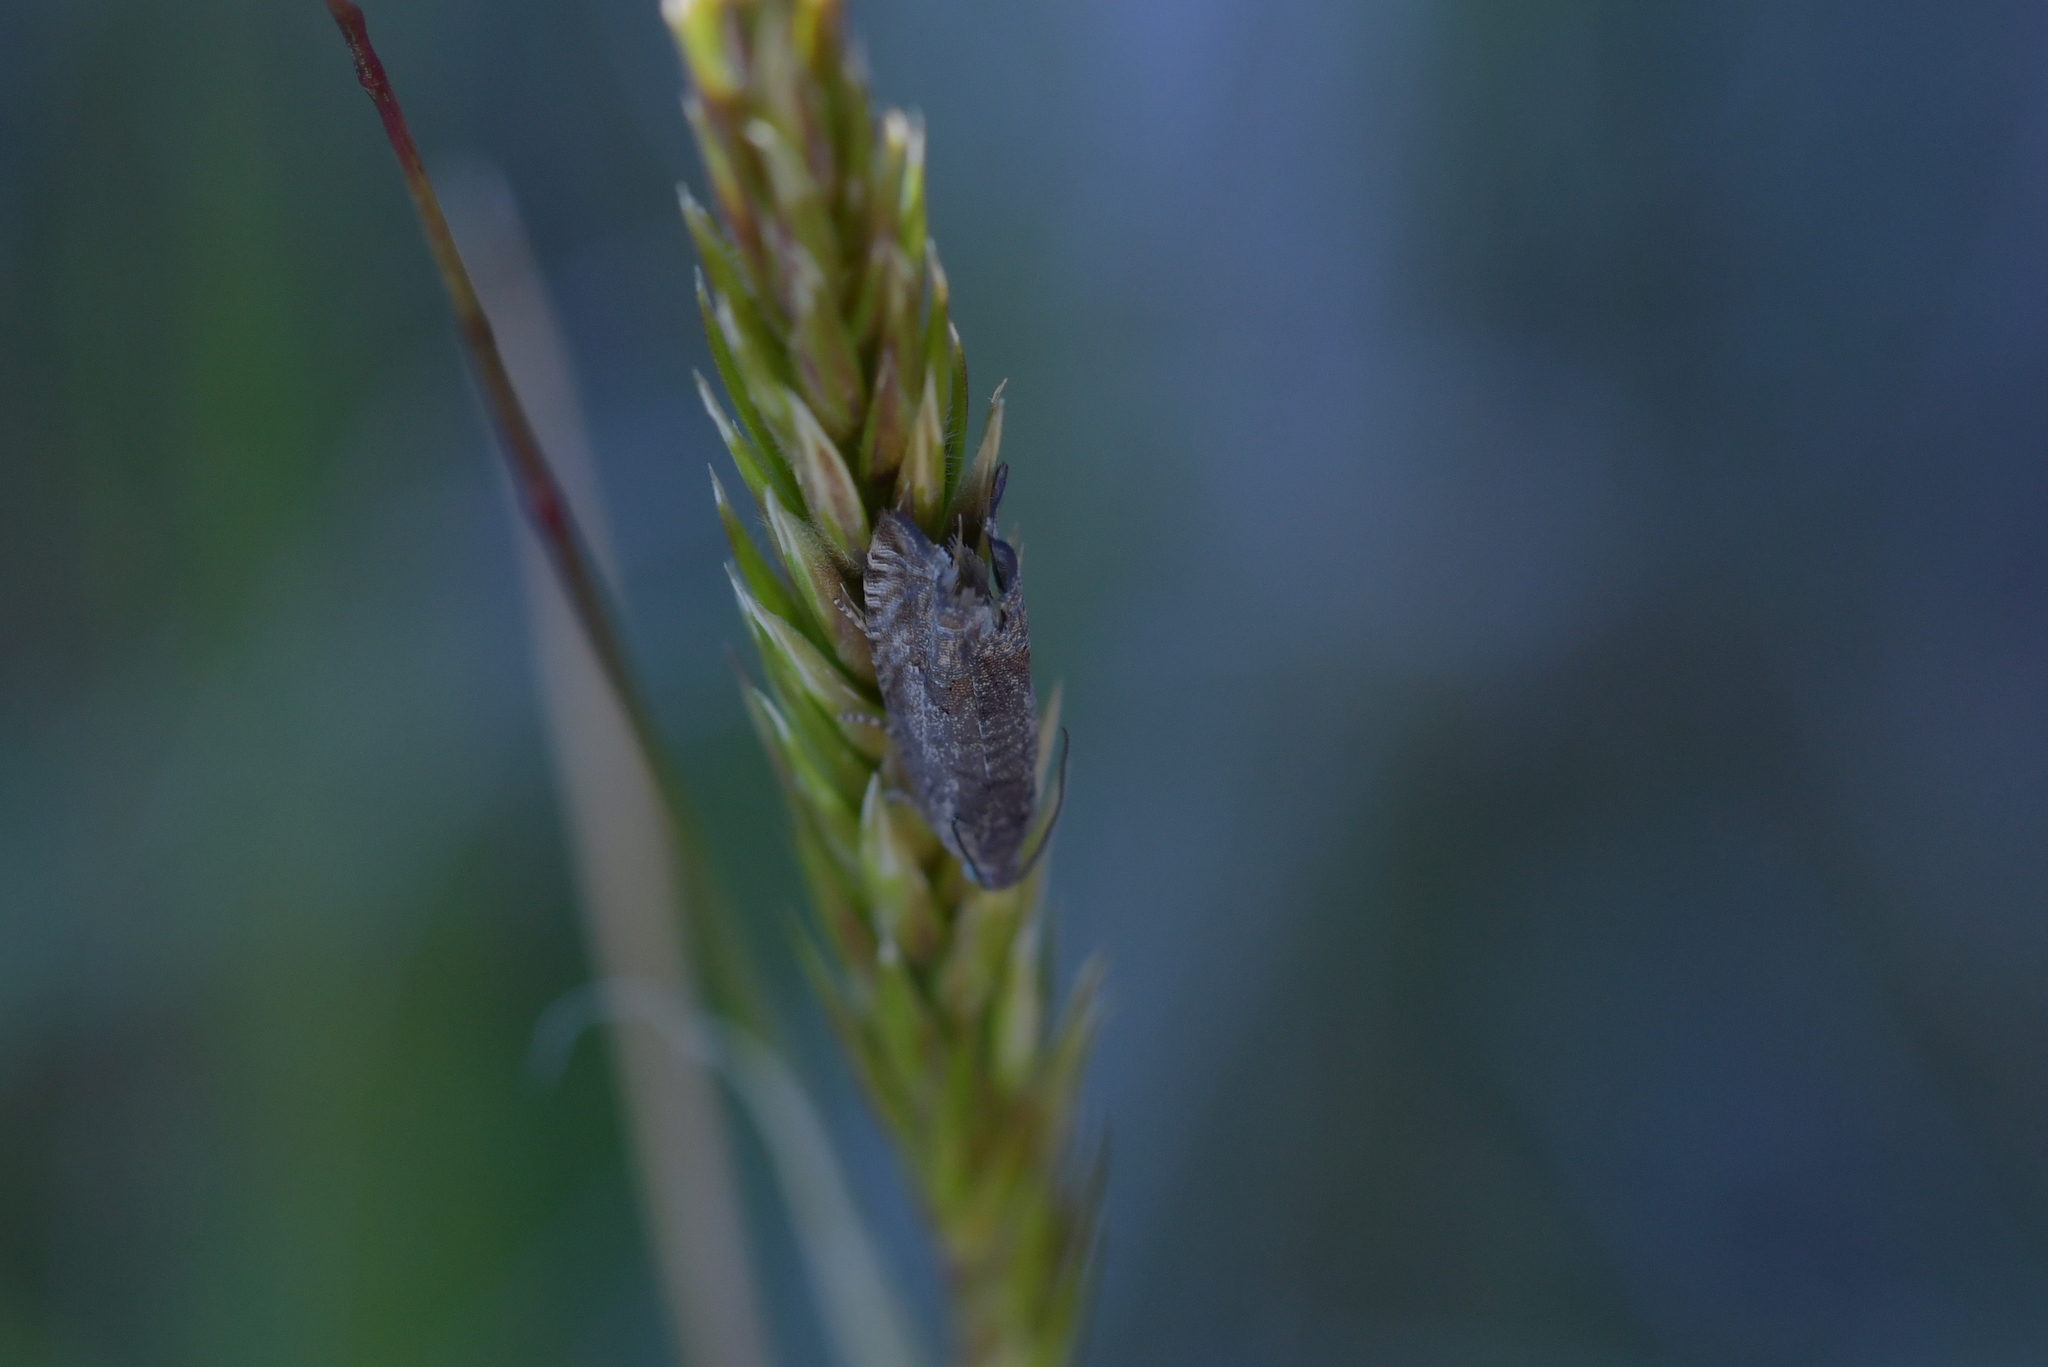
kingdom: Animalia
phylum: Arthropoda
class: Insecta
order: Lepidoptera
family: Tortricidae
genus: Cydia
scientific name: Cydia succedana
